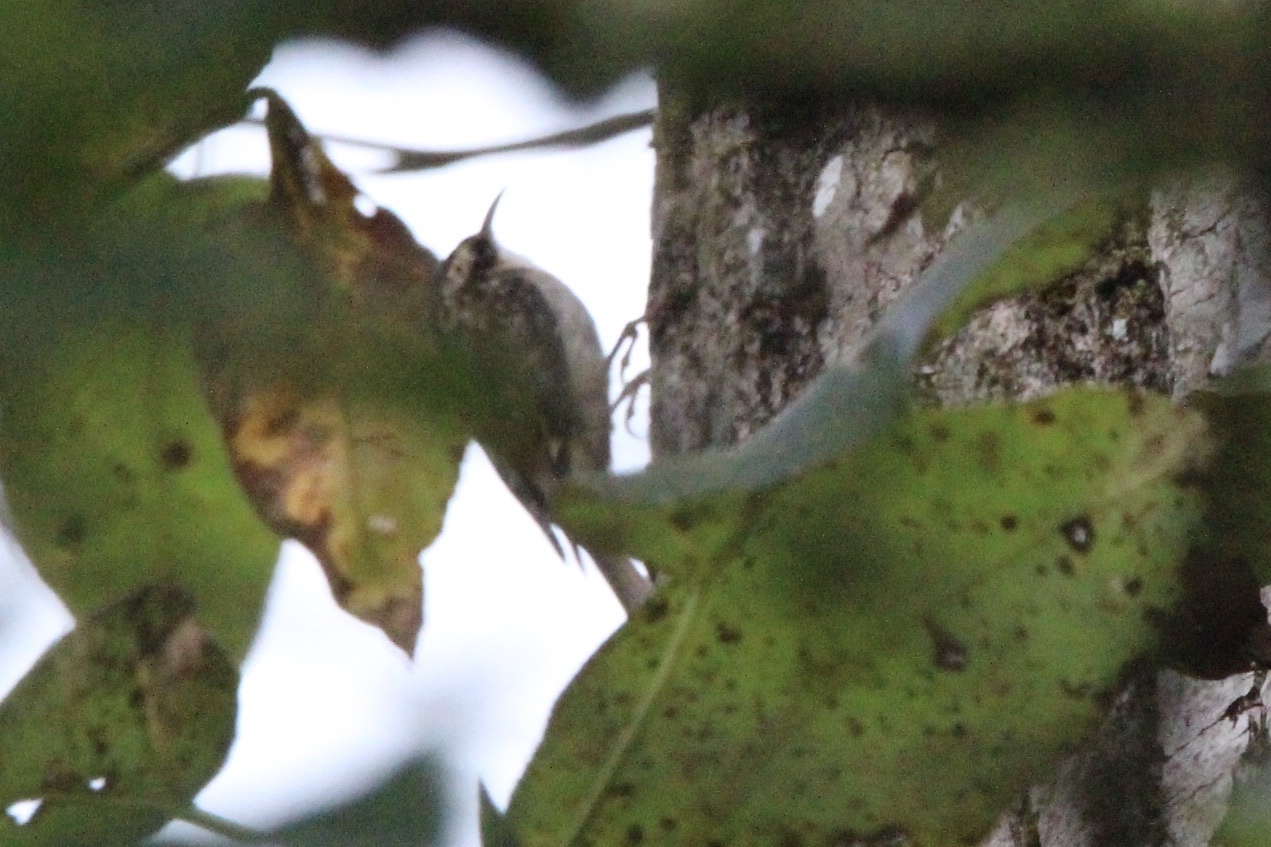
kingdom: Animalia
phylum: Chordata
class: Aves
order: Passeriformes
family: Certhiidae
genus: Certhia
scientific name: Certhia americana
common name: Brown creeper
